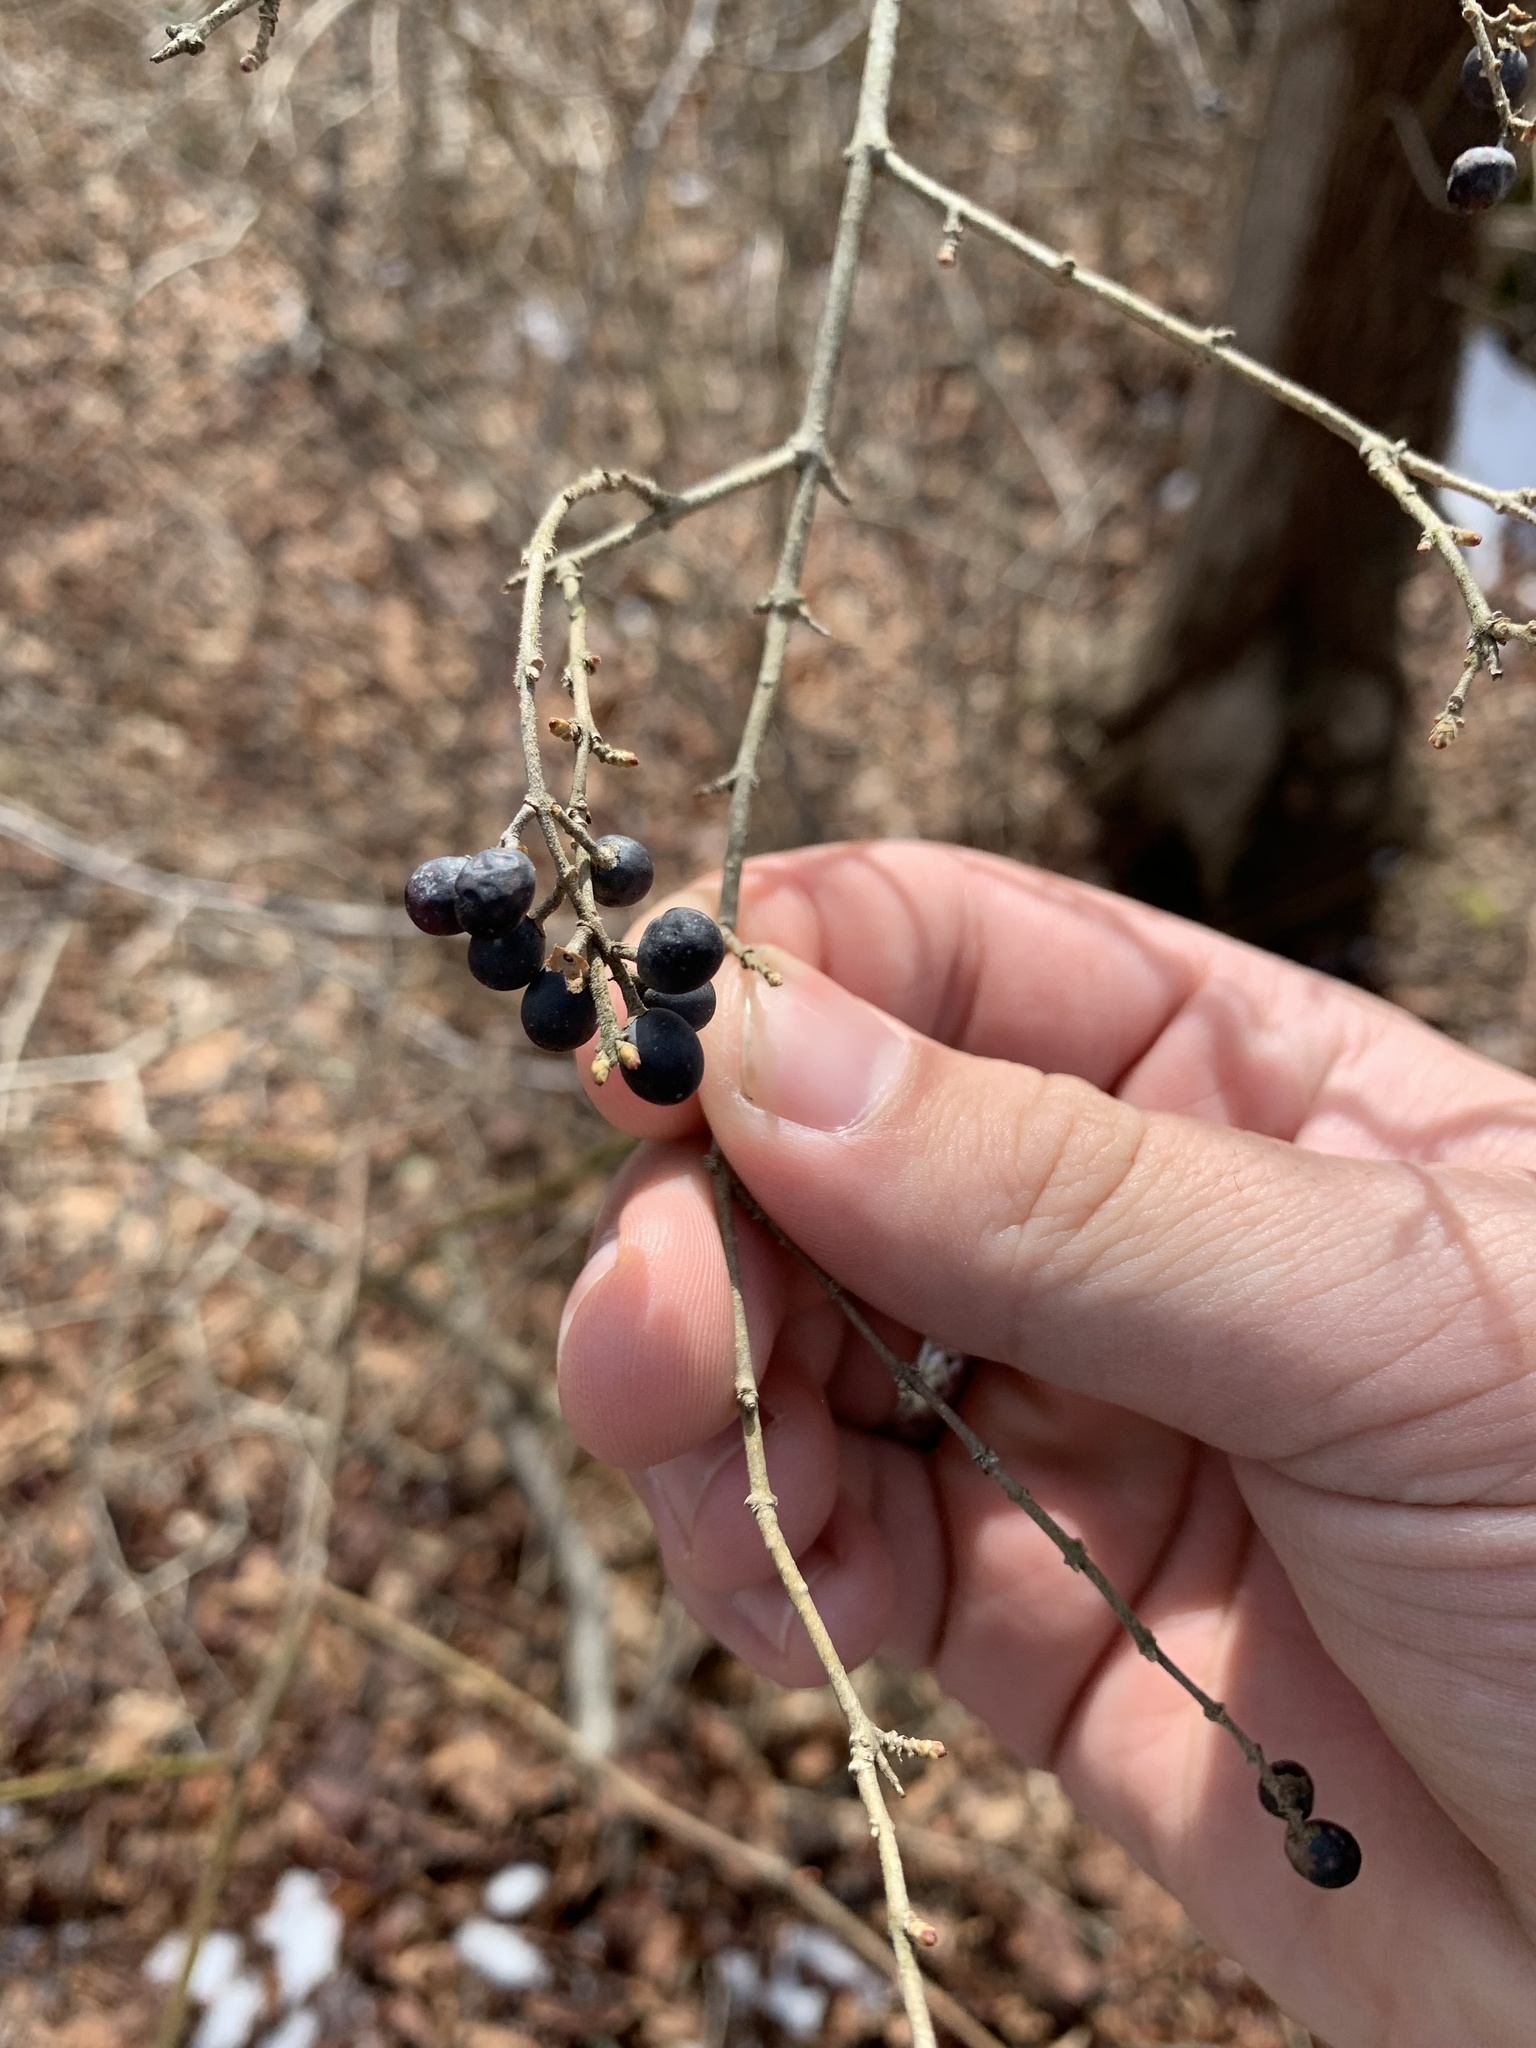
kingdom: Plantae
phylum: Tracheophyta
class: Magnoliopsida
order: Lamiales
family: Oleaceae
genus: Ligustrum
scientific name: Ligustrum obtusifolium
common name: Border privet
